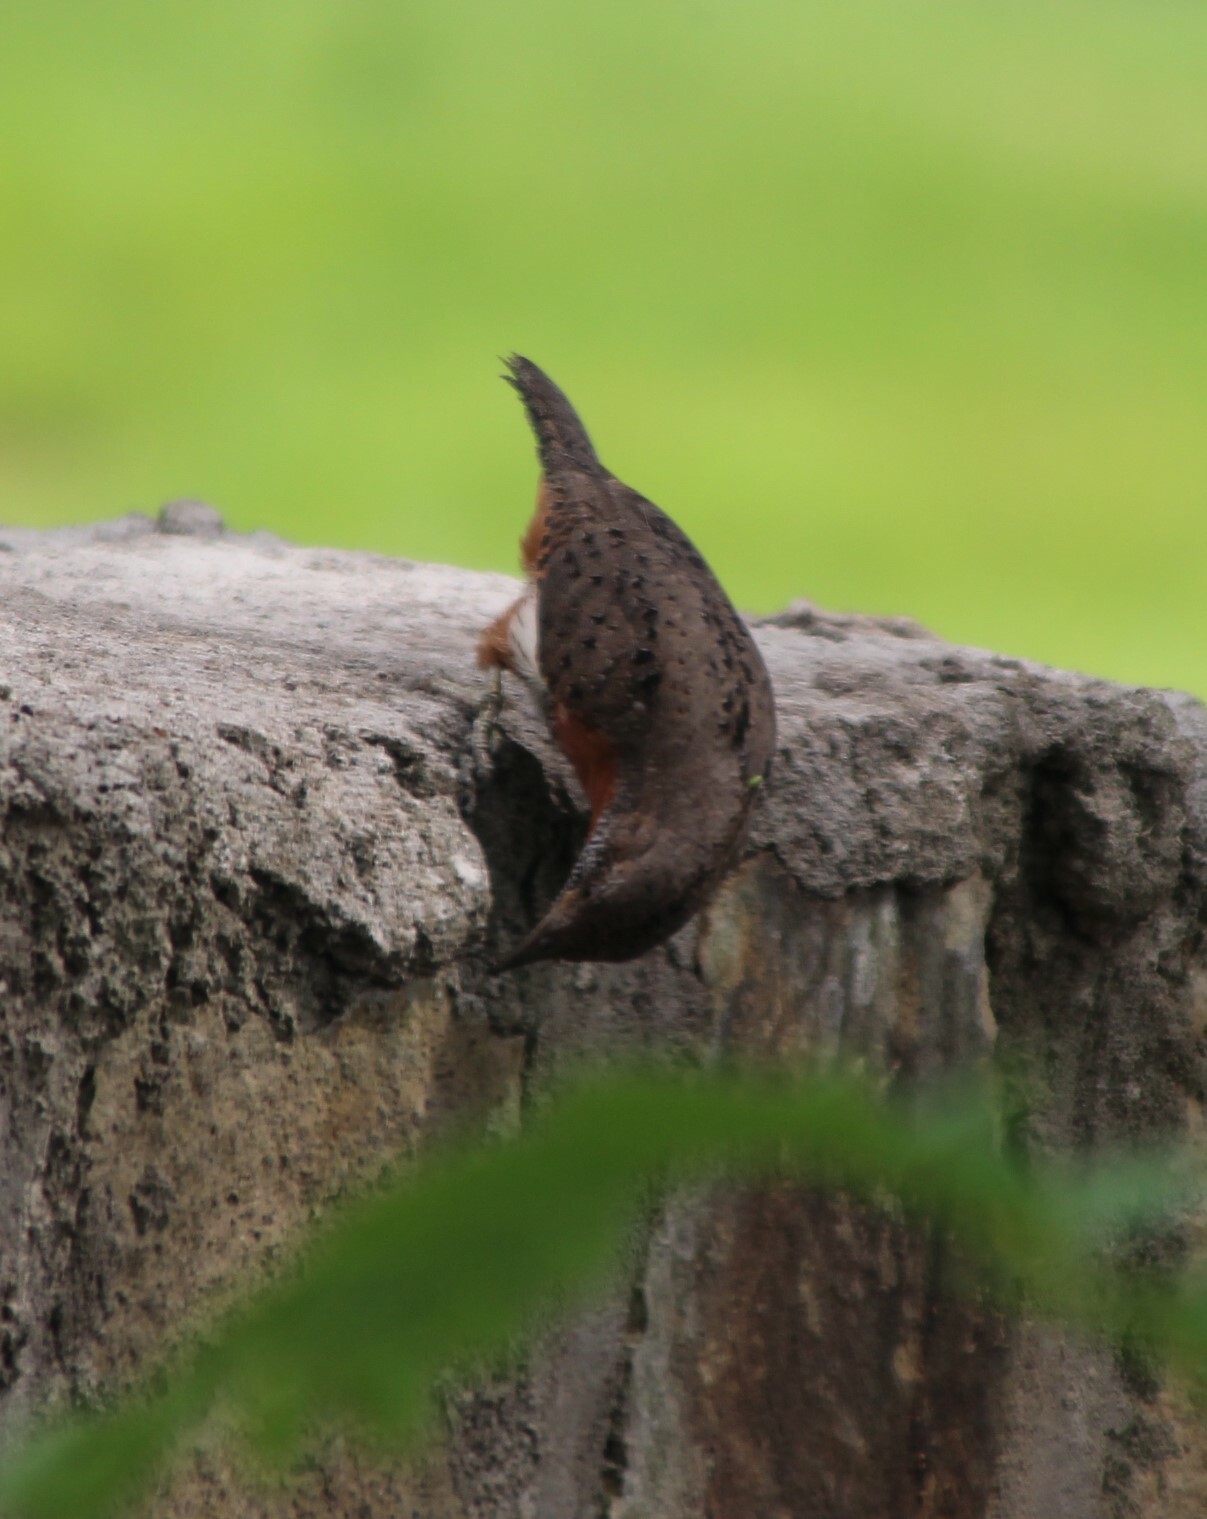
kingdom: Animalia
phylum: Chordata
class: Aves
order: Piciformes
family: Picidae
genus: Jynx
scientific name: Jynx ruficollis
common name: Red-throated wryneck
